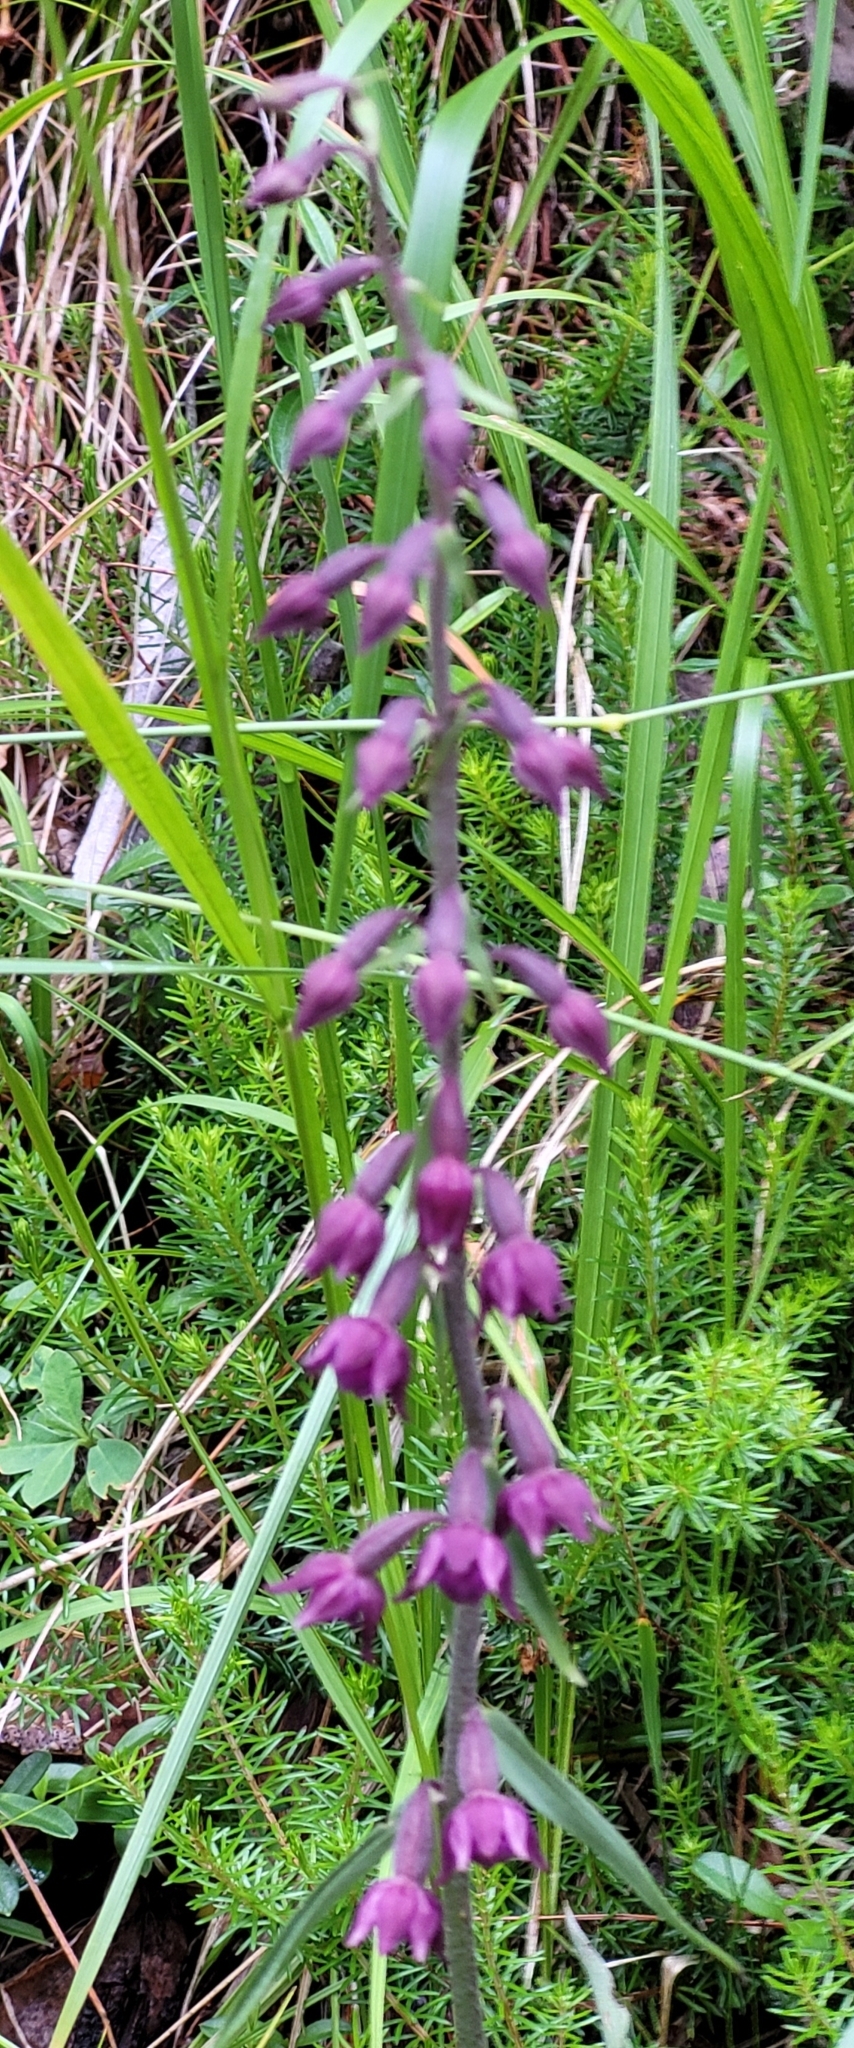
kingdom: Plantae
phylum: Tracheophyta
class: Liliopsida
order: Asparagales
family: Orchidaceae
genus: Epipactis
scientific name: Epipactis atrorubens
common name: Dark-red helleborine
